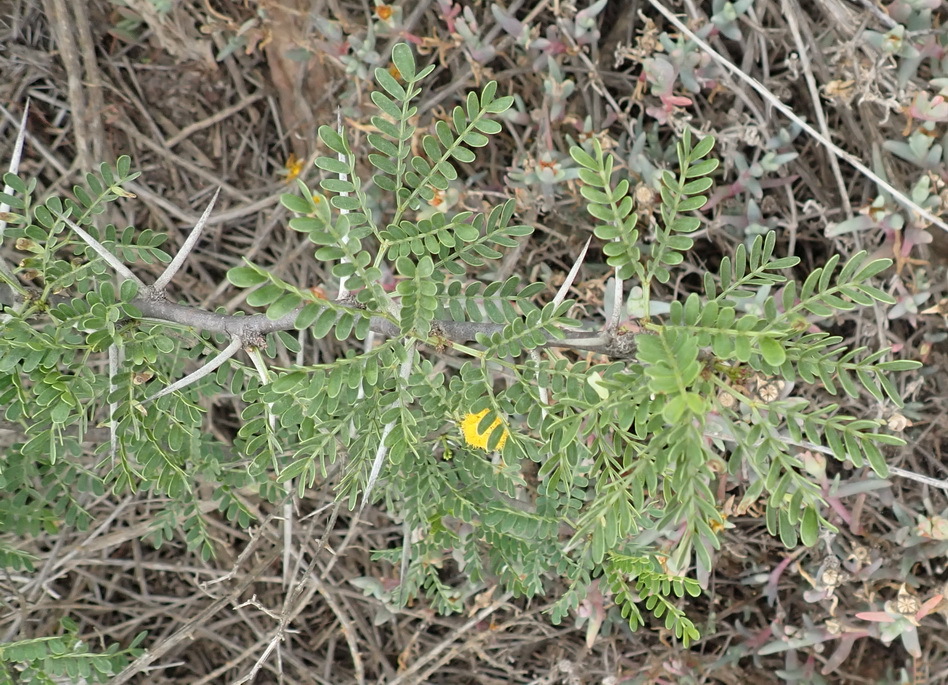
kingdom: Plantae
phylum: Tracheophyta
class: Magnoliopsida
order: Fabales
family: Fabaceae
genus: Vachellia
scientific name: Vachellia karroo
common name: Sweet thorn
